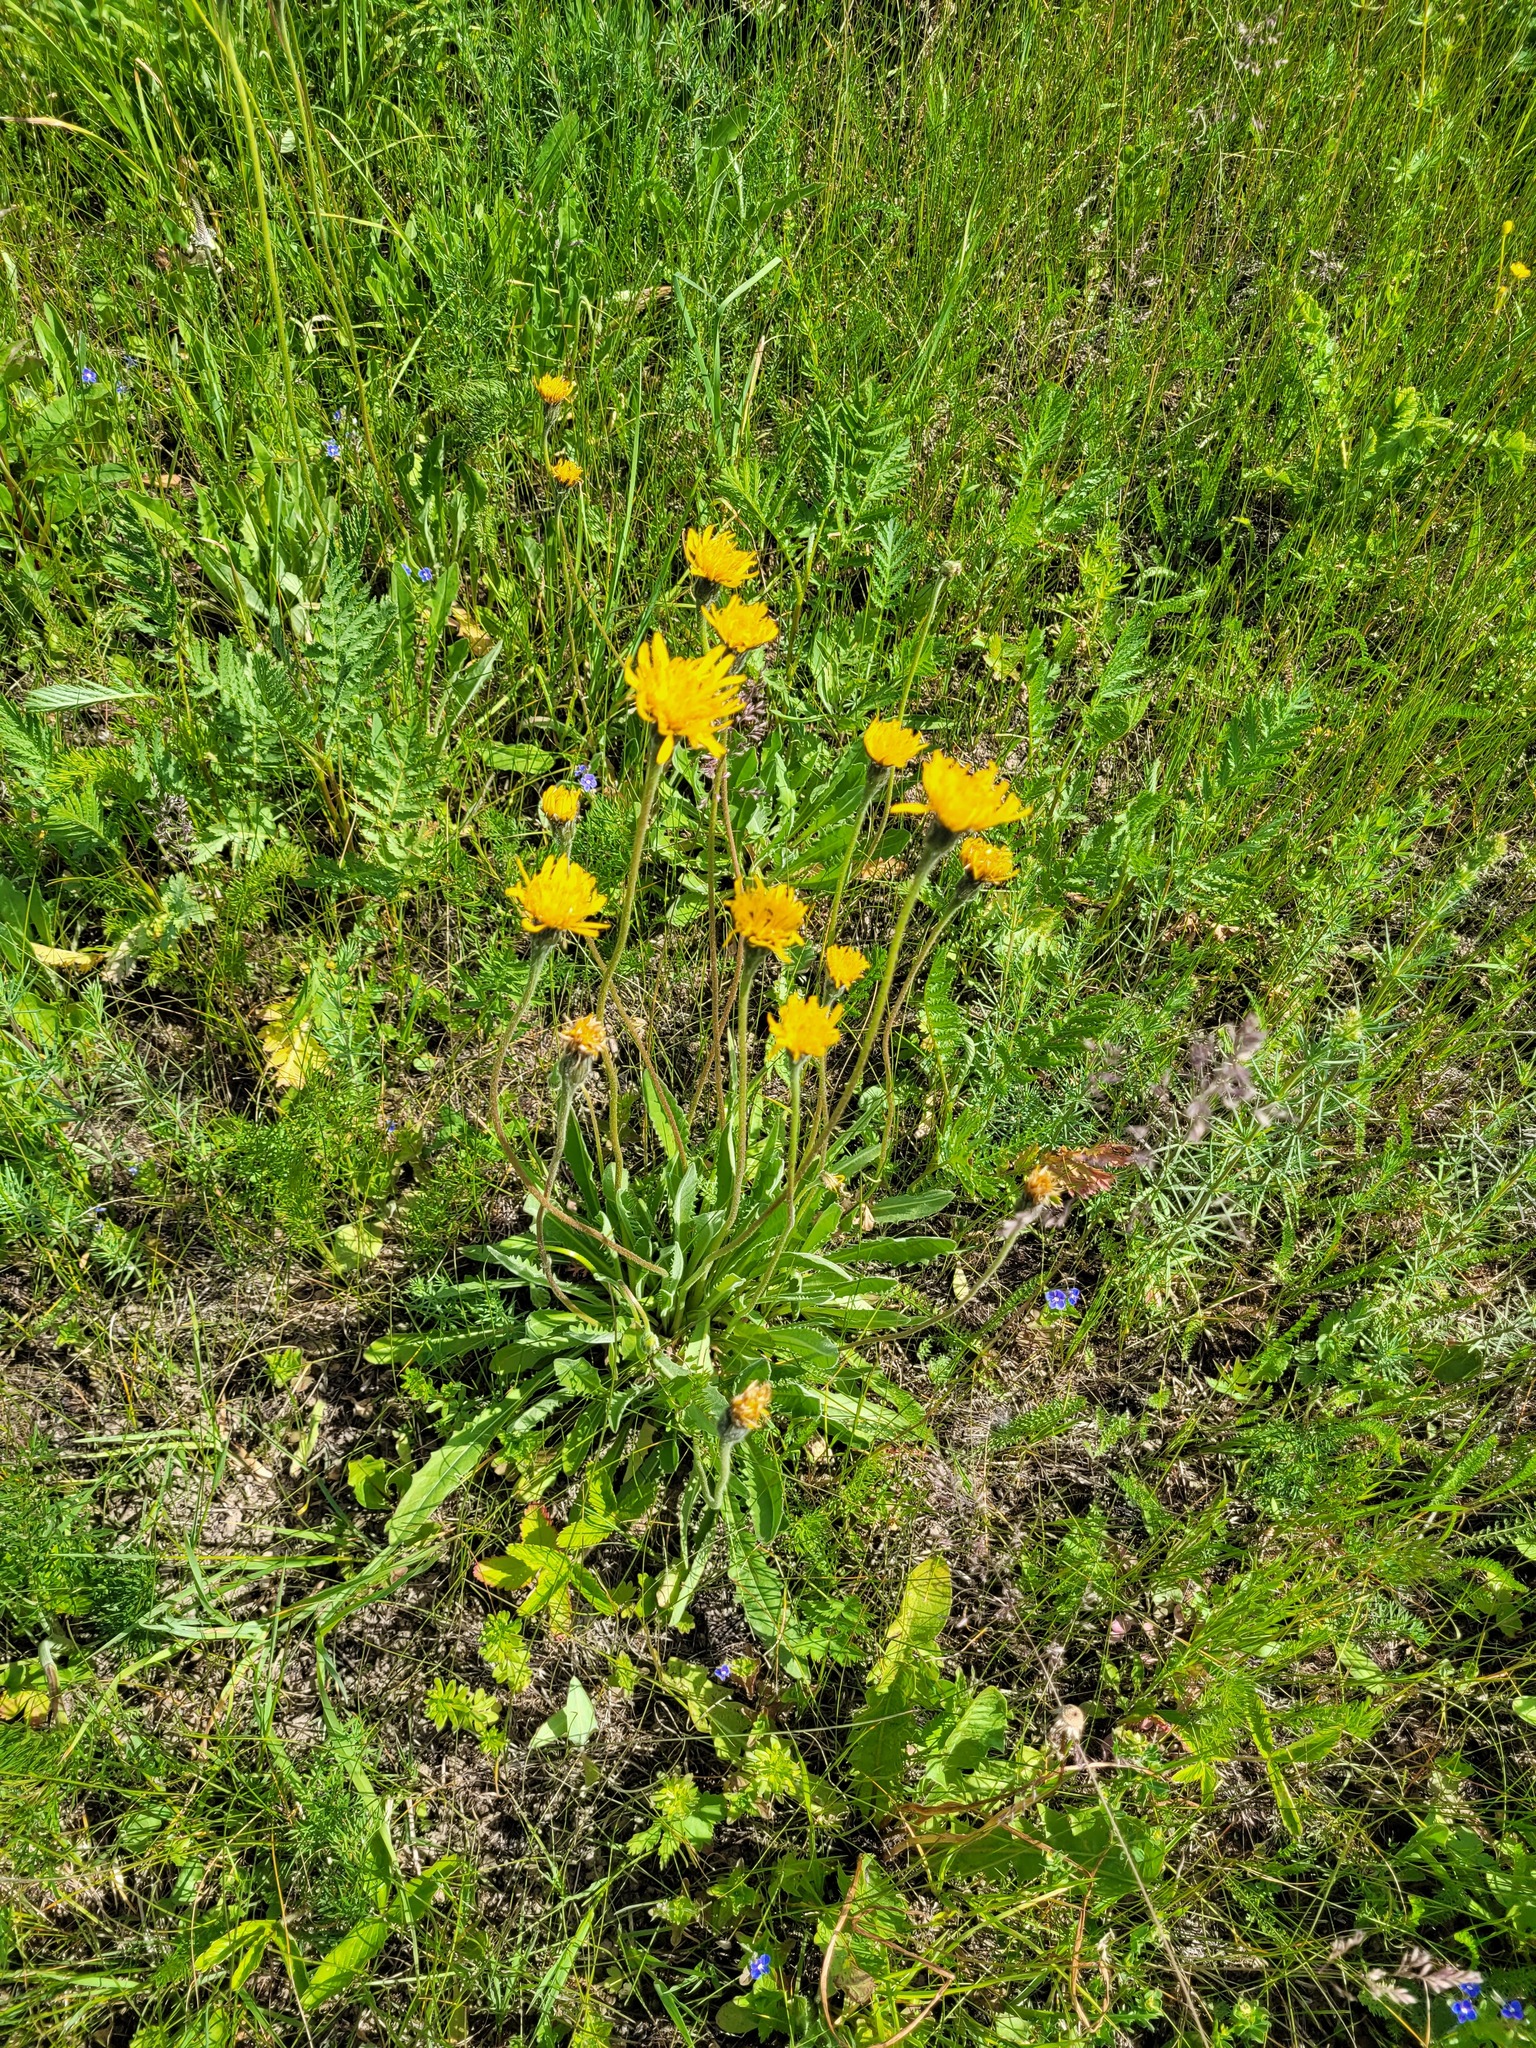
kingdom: Plantae
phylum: Tracheophyta
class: Magnoliopsida
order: Asterales
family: Asteraceae
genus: Leontodon
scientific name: Leontodon hispidus
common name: Rough hawkbit
